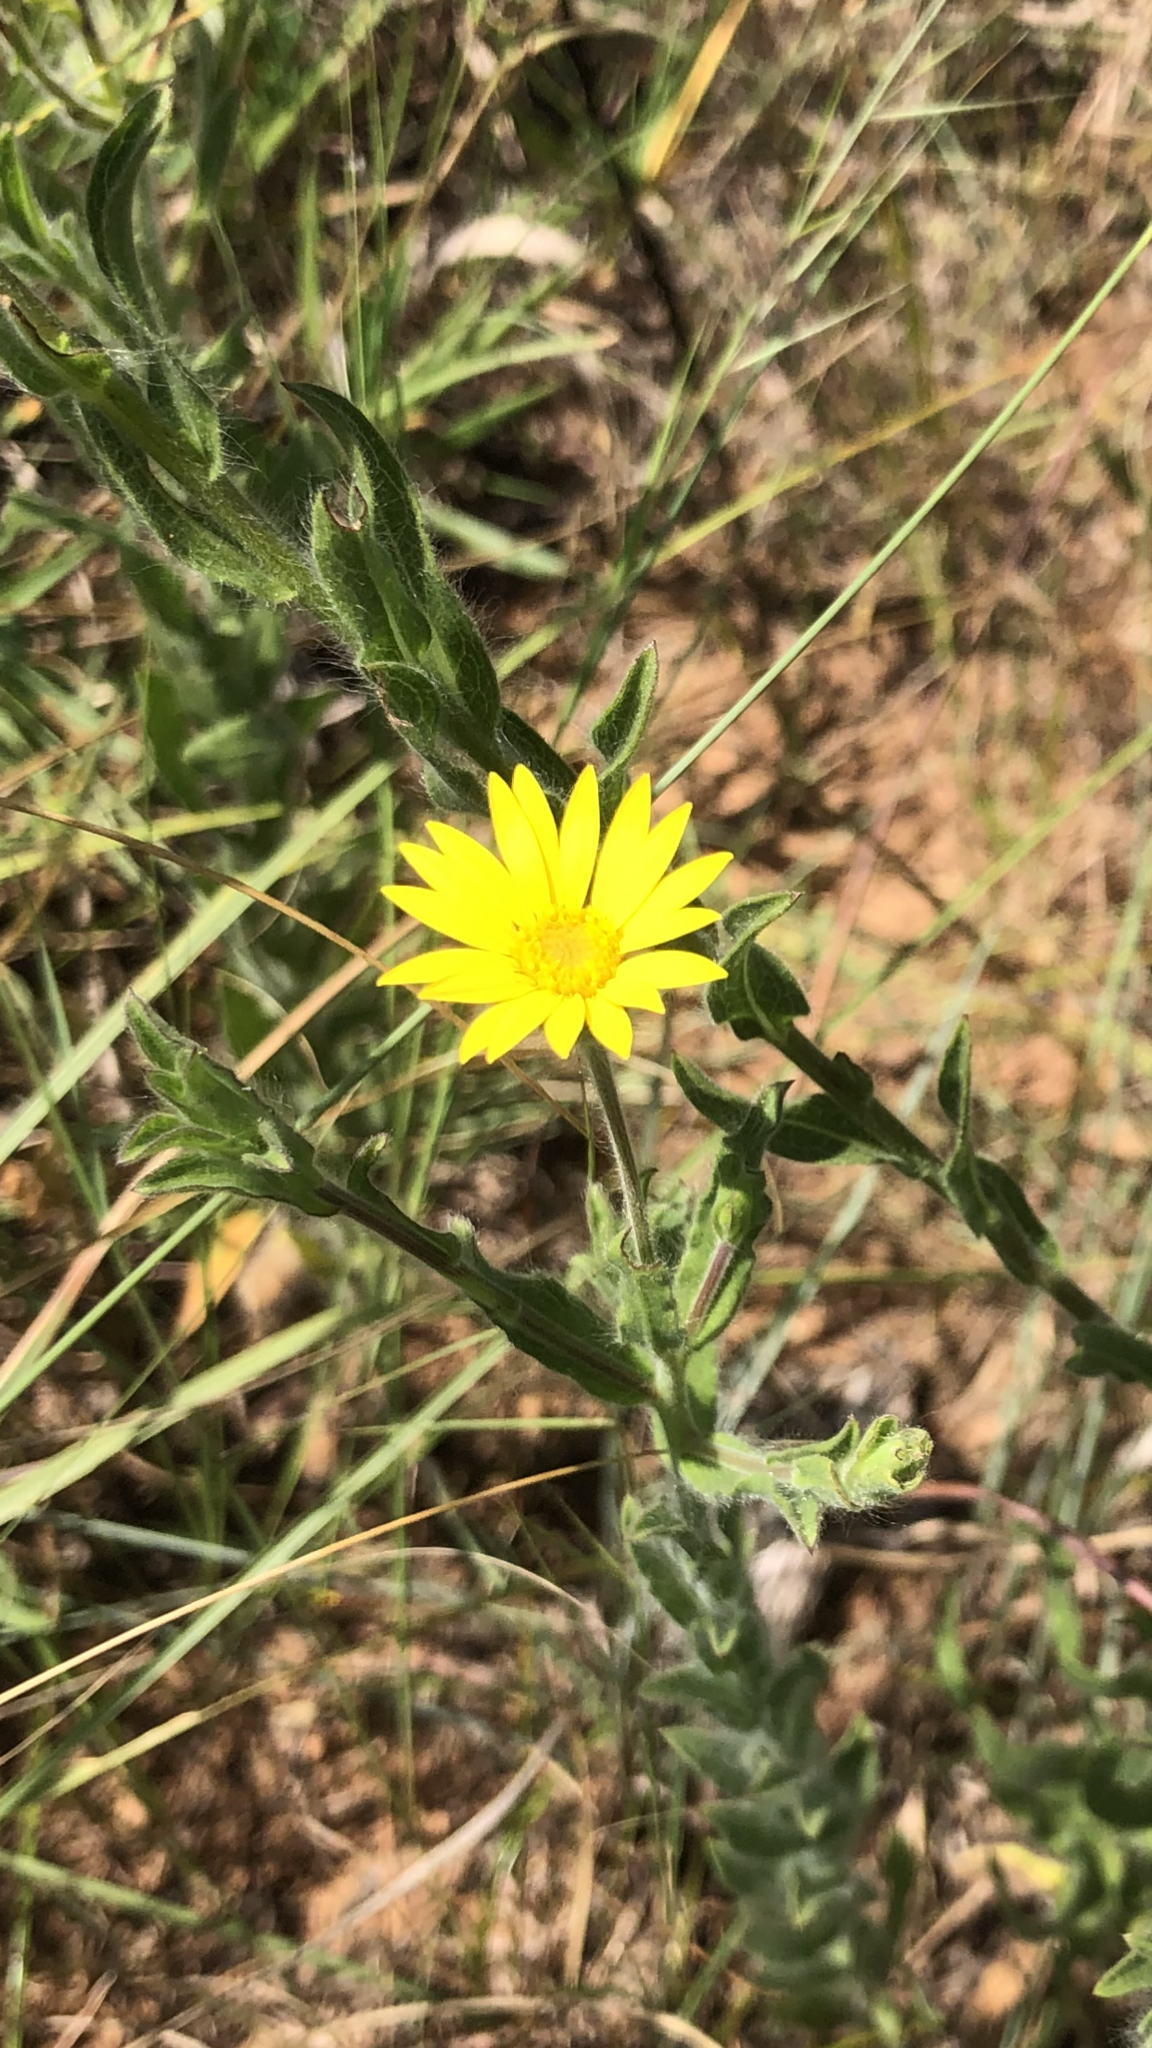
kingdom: Plantae
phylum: Tracheophyta
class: Magnoliopsida
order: Asterales
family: Asteraceae
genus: Bradburia
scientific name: Bradburia pilosa
